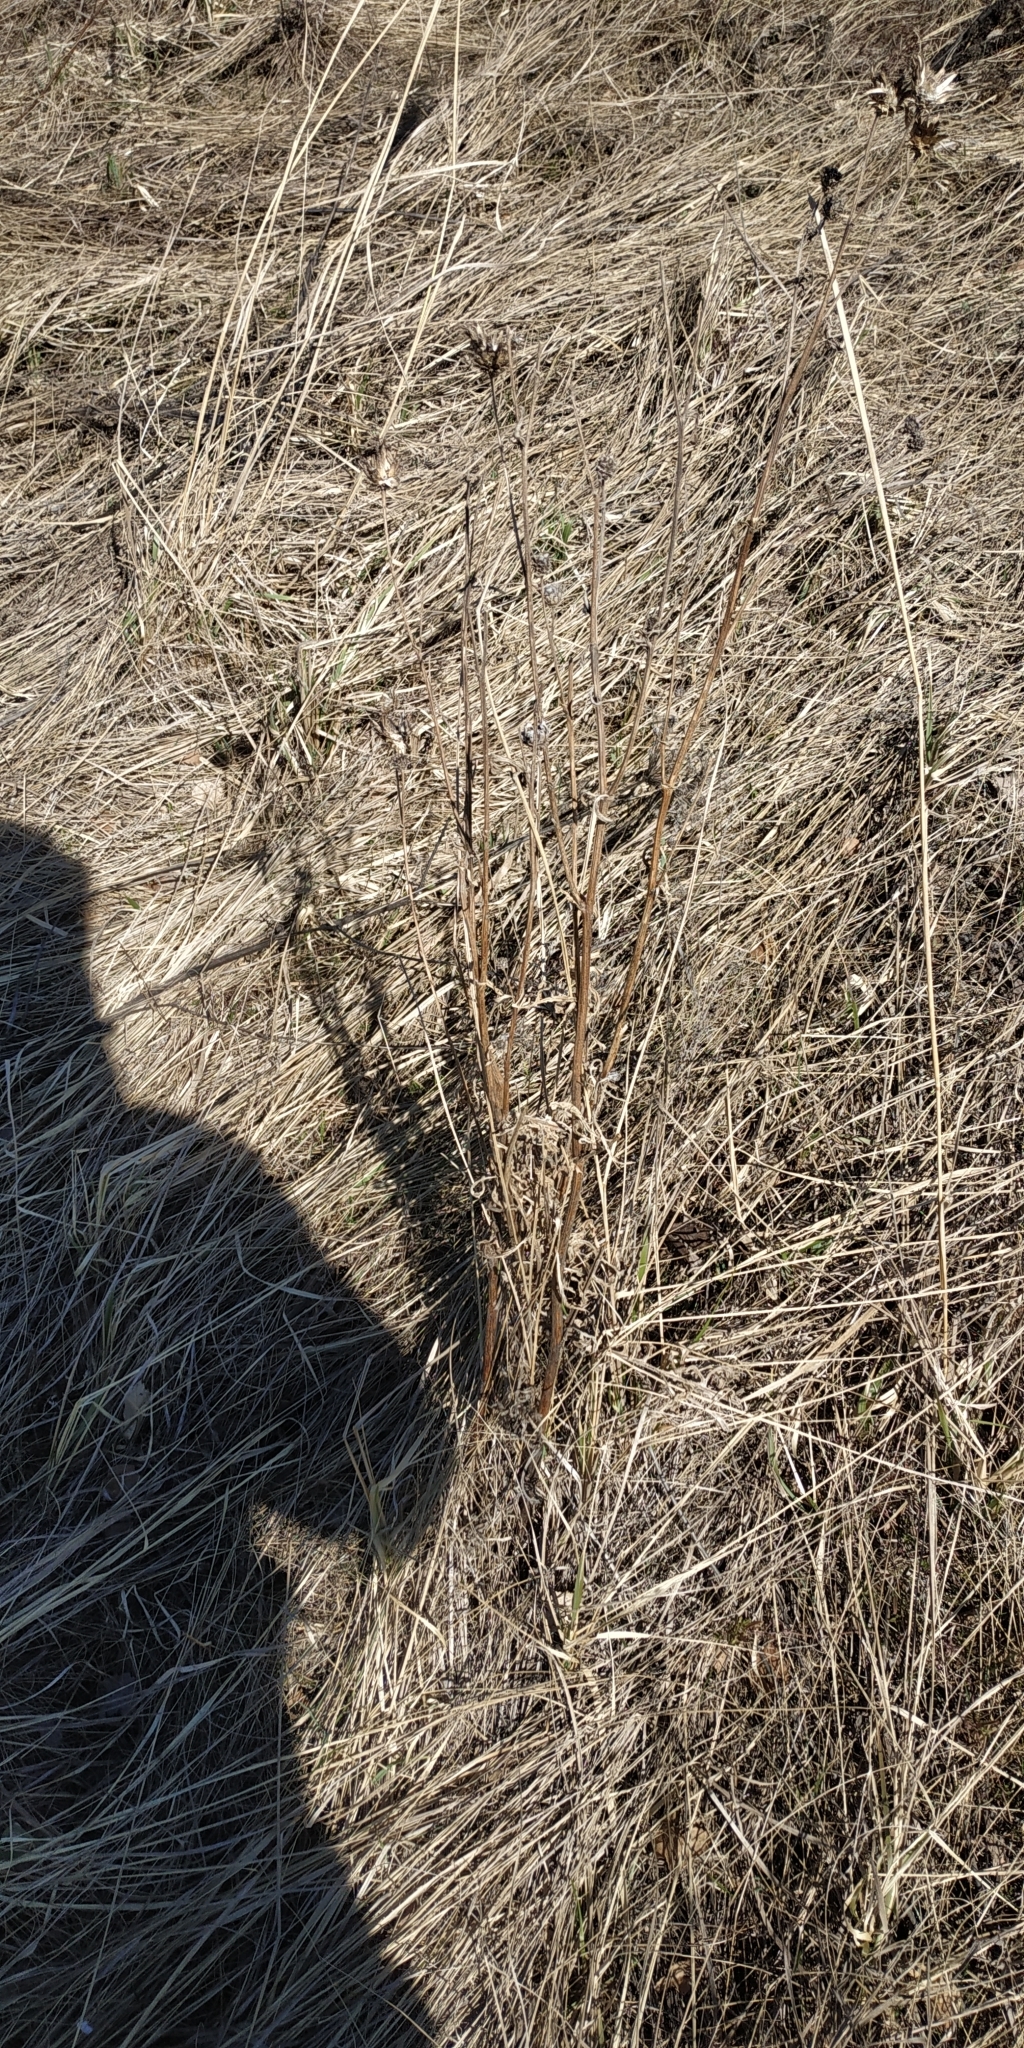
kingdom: Plantae
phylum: Tracheophyta
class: Magnoliopsida
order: Asterales
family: Asteraceae
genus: Centaurea
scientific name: Centaurea scabiosa
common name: Greater knapweed
